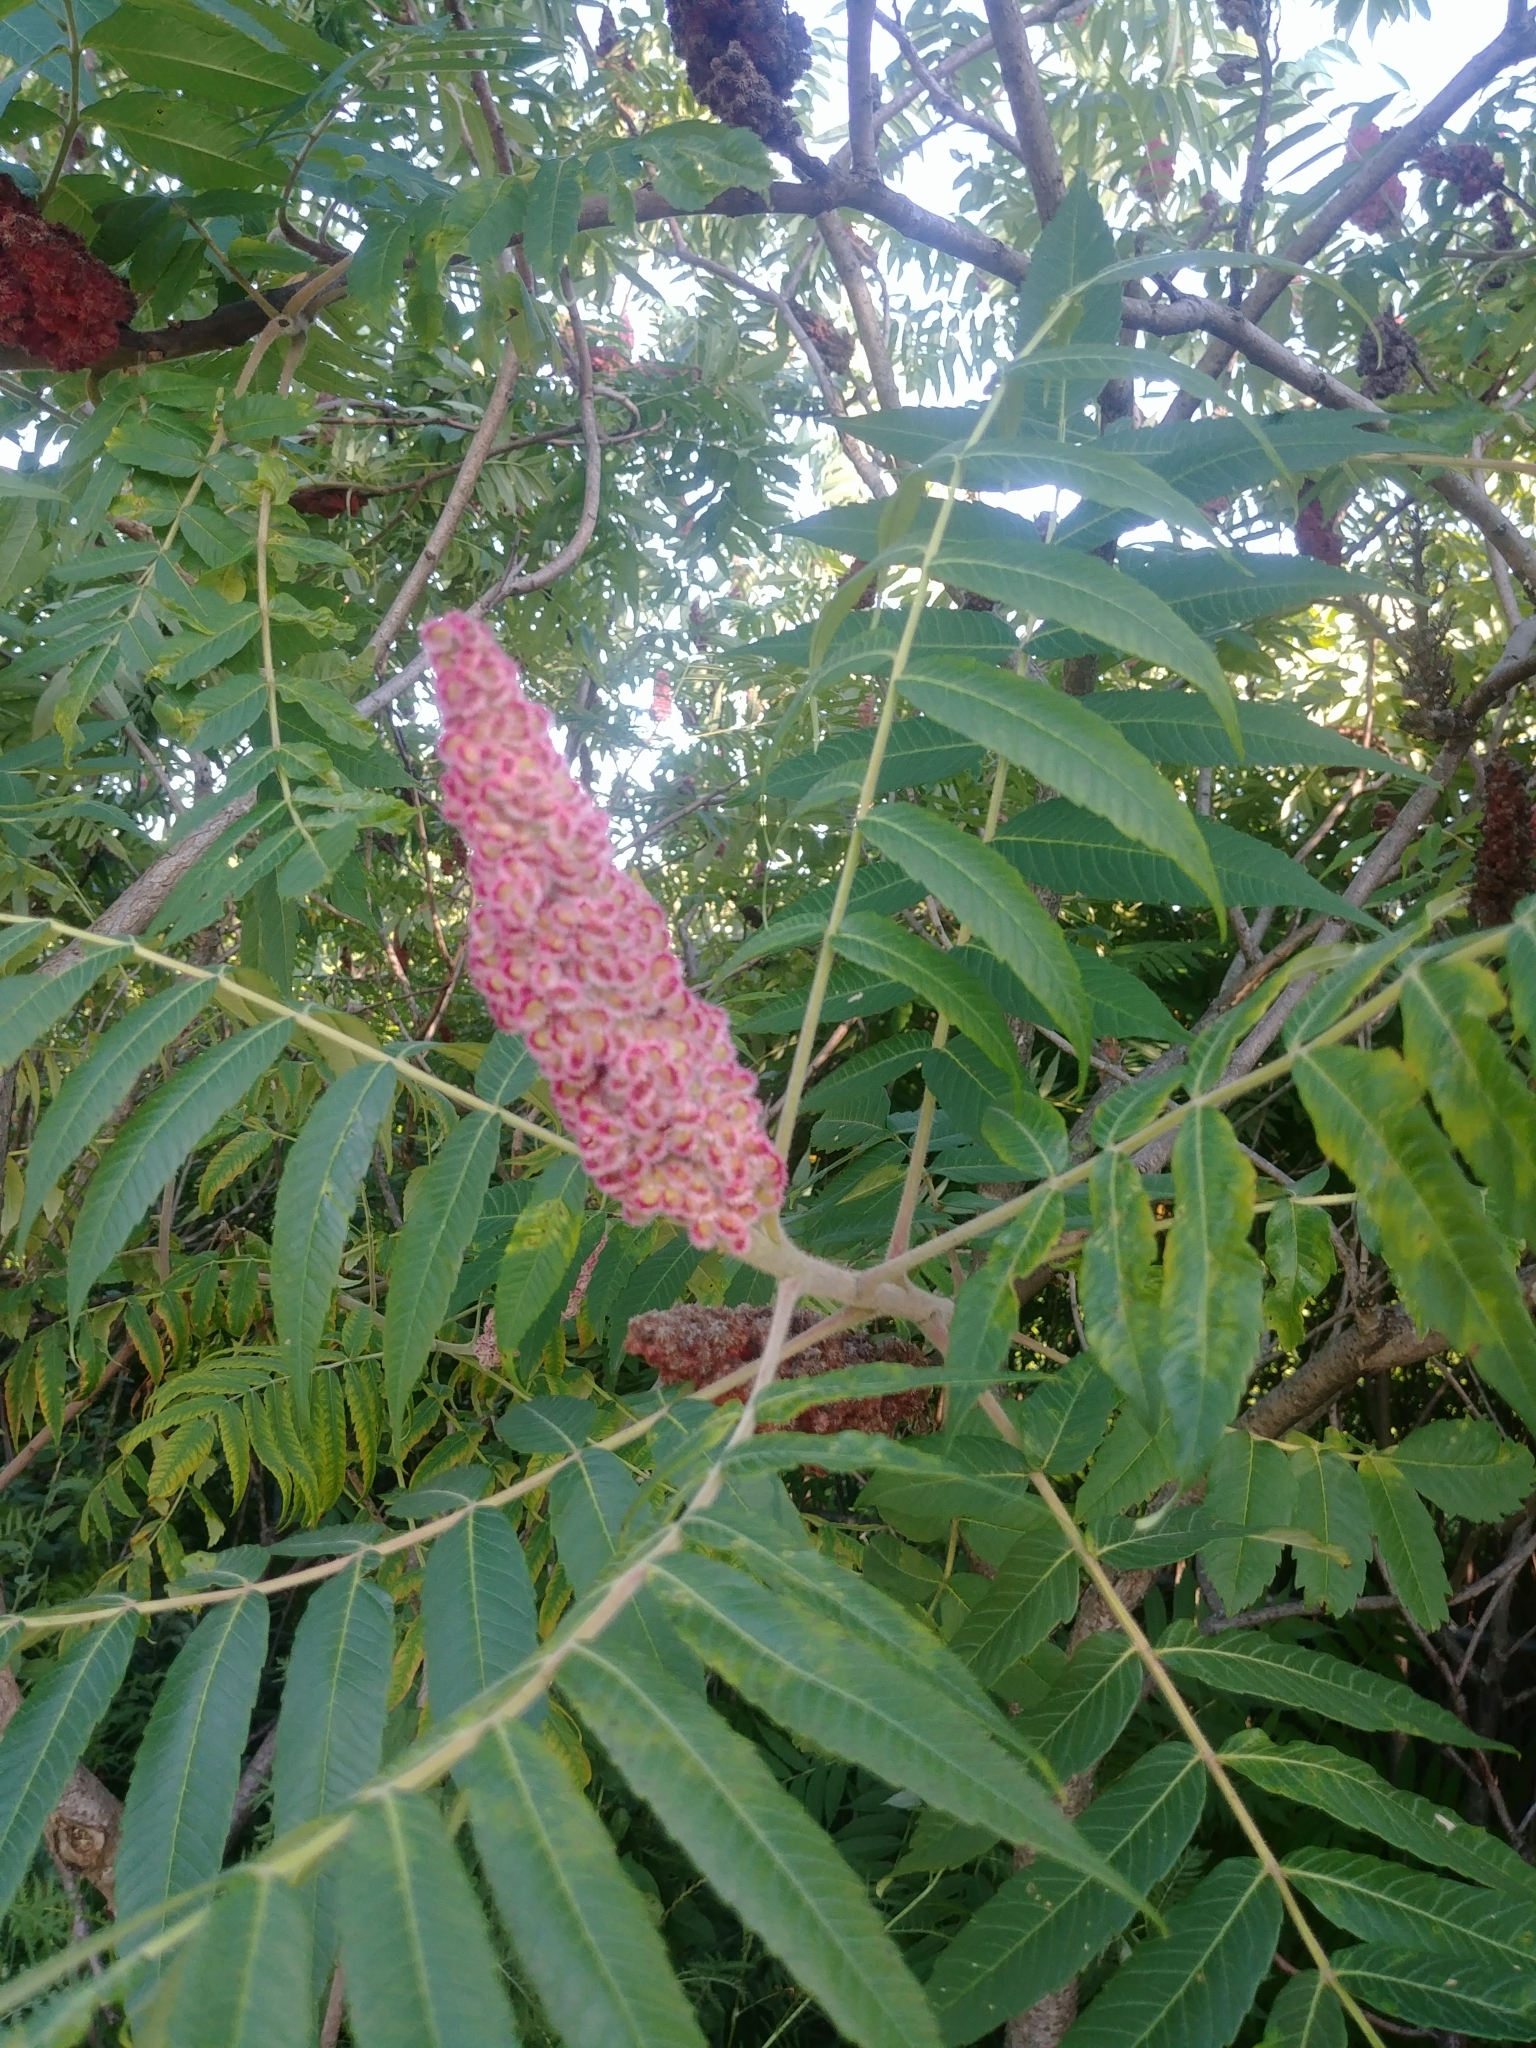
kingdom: Plantae
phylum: Tracheophyta
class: Magnoliopsida
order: Sapindales
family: Anacardiaceae
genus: Rhus
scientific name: Rhus typhina
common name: Staghorn sumac
